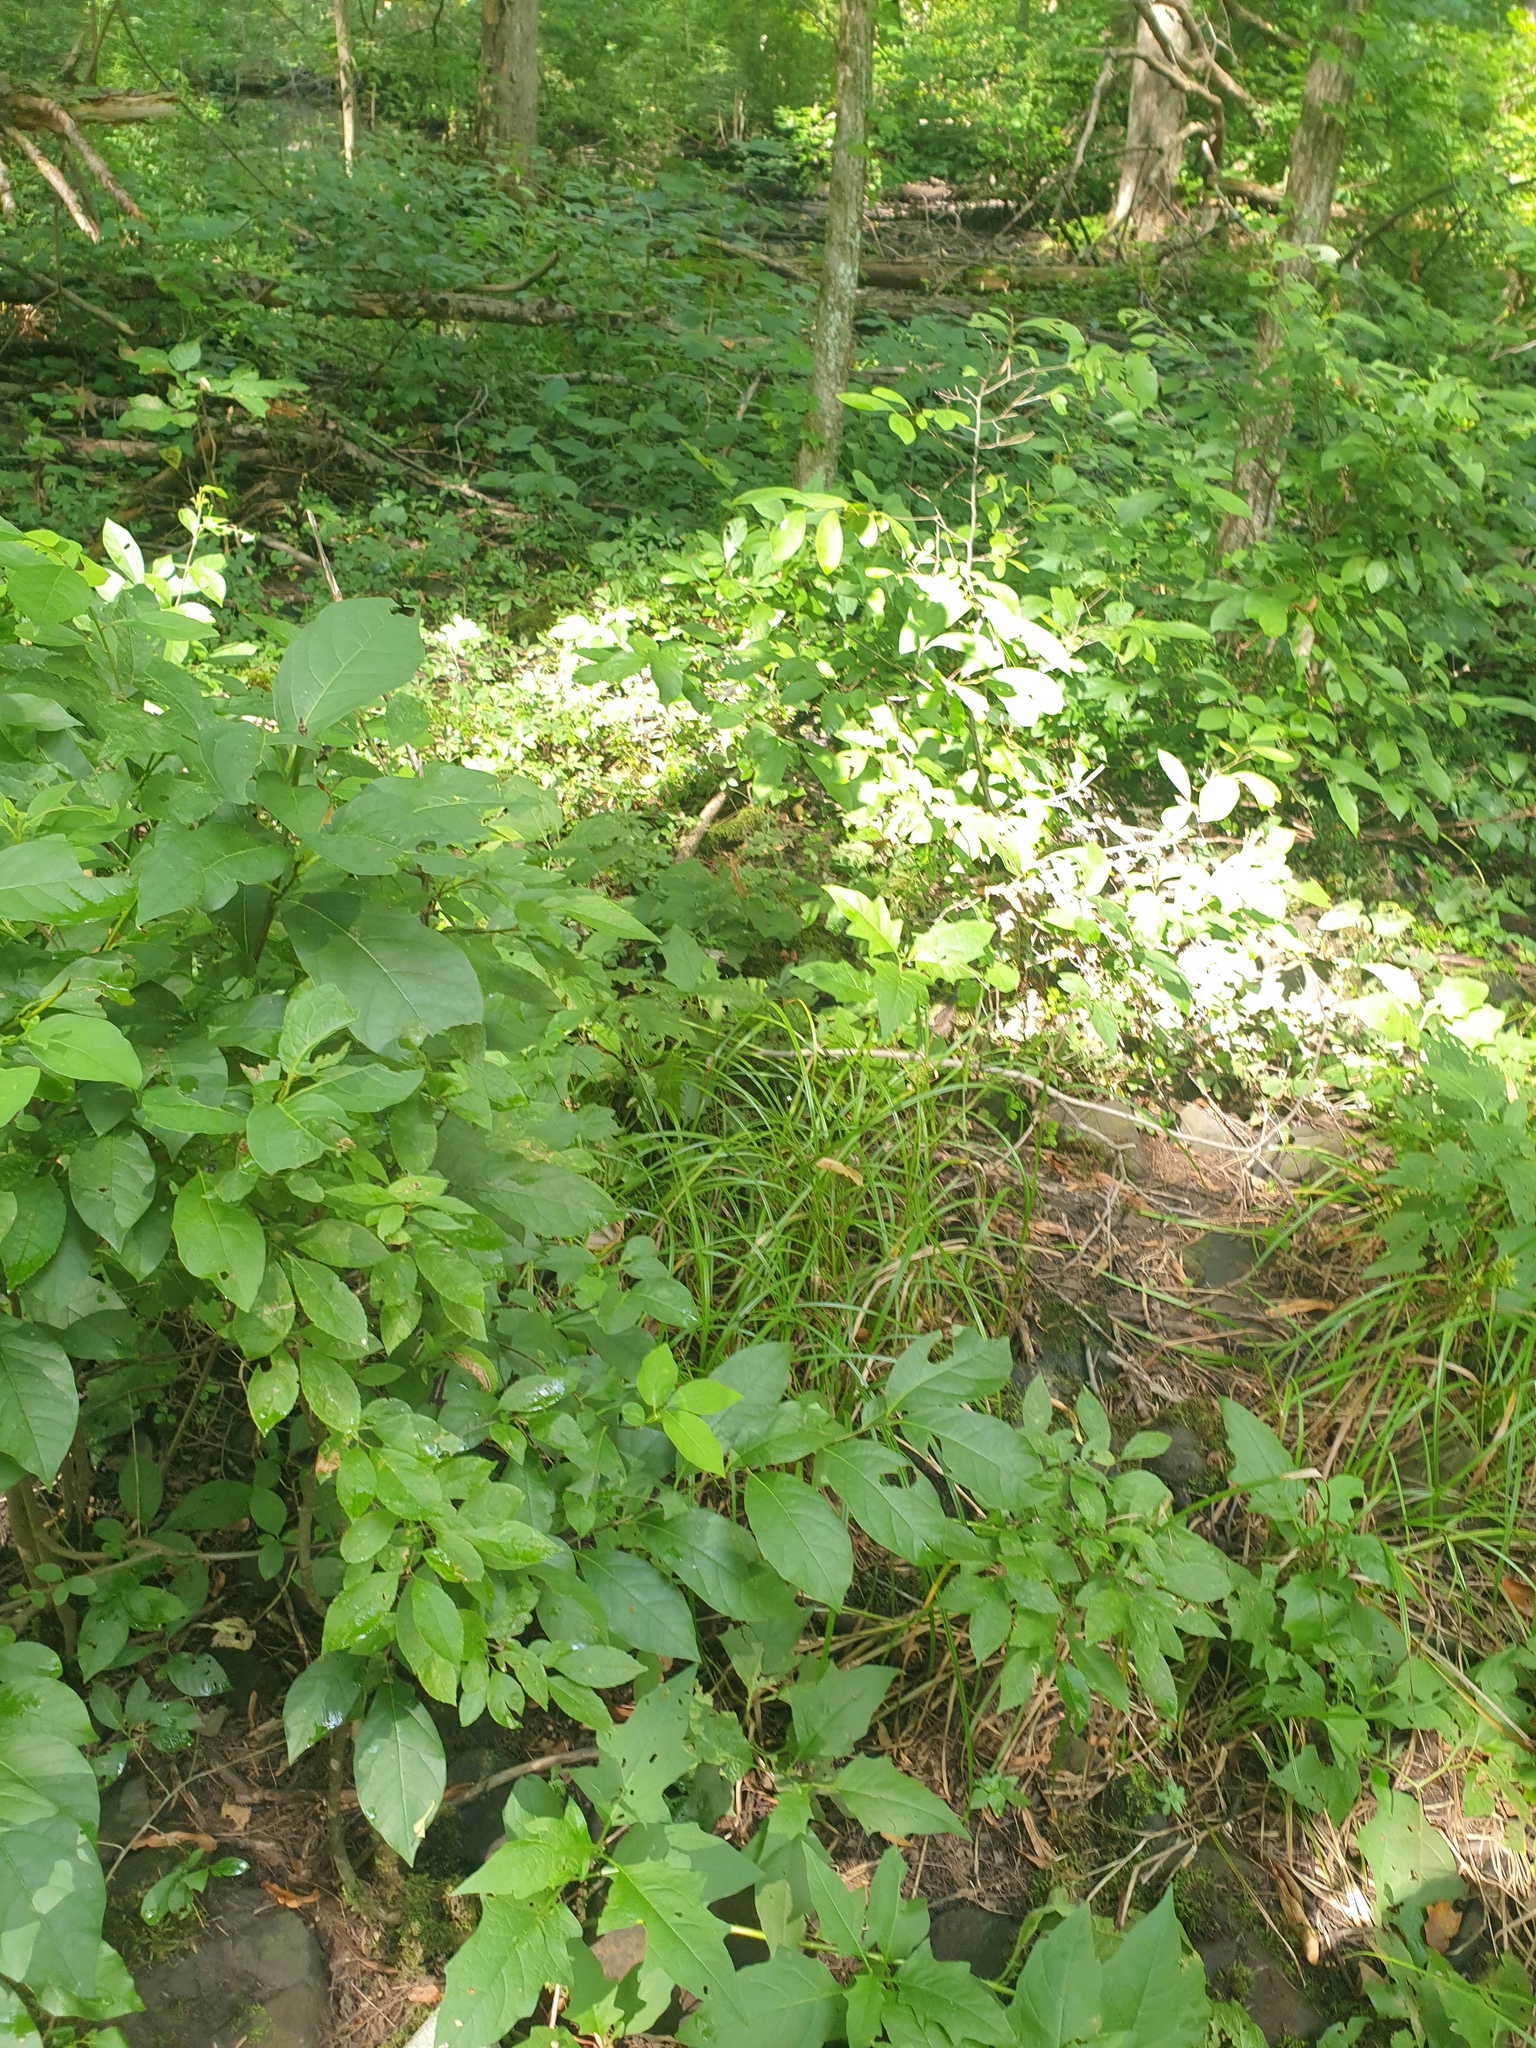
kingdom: Plantae
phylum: Tracheophyta
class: Magnoliopsida
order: Laurales
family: Lauraceae
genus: Lindera
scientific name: Lindera benzoin
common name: Spicebush
